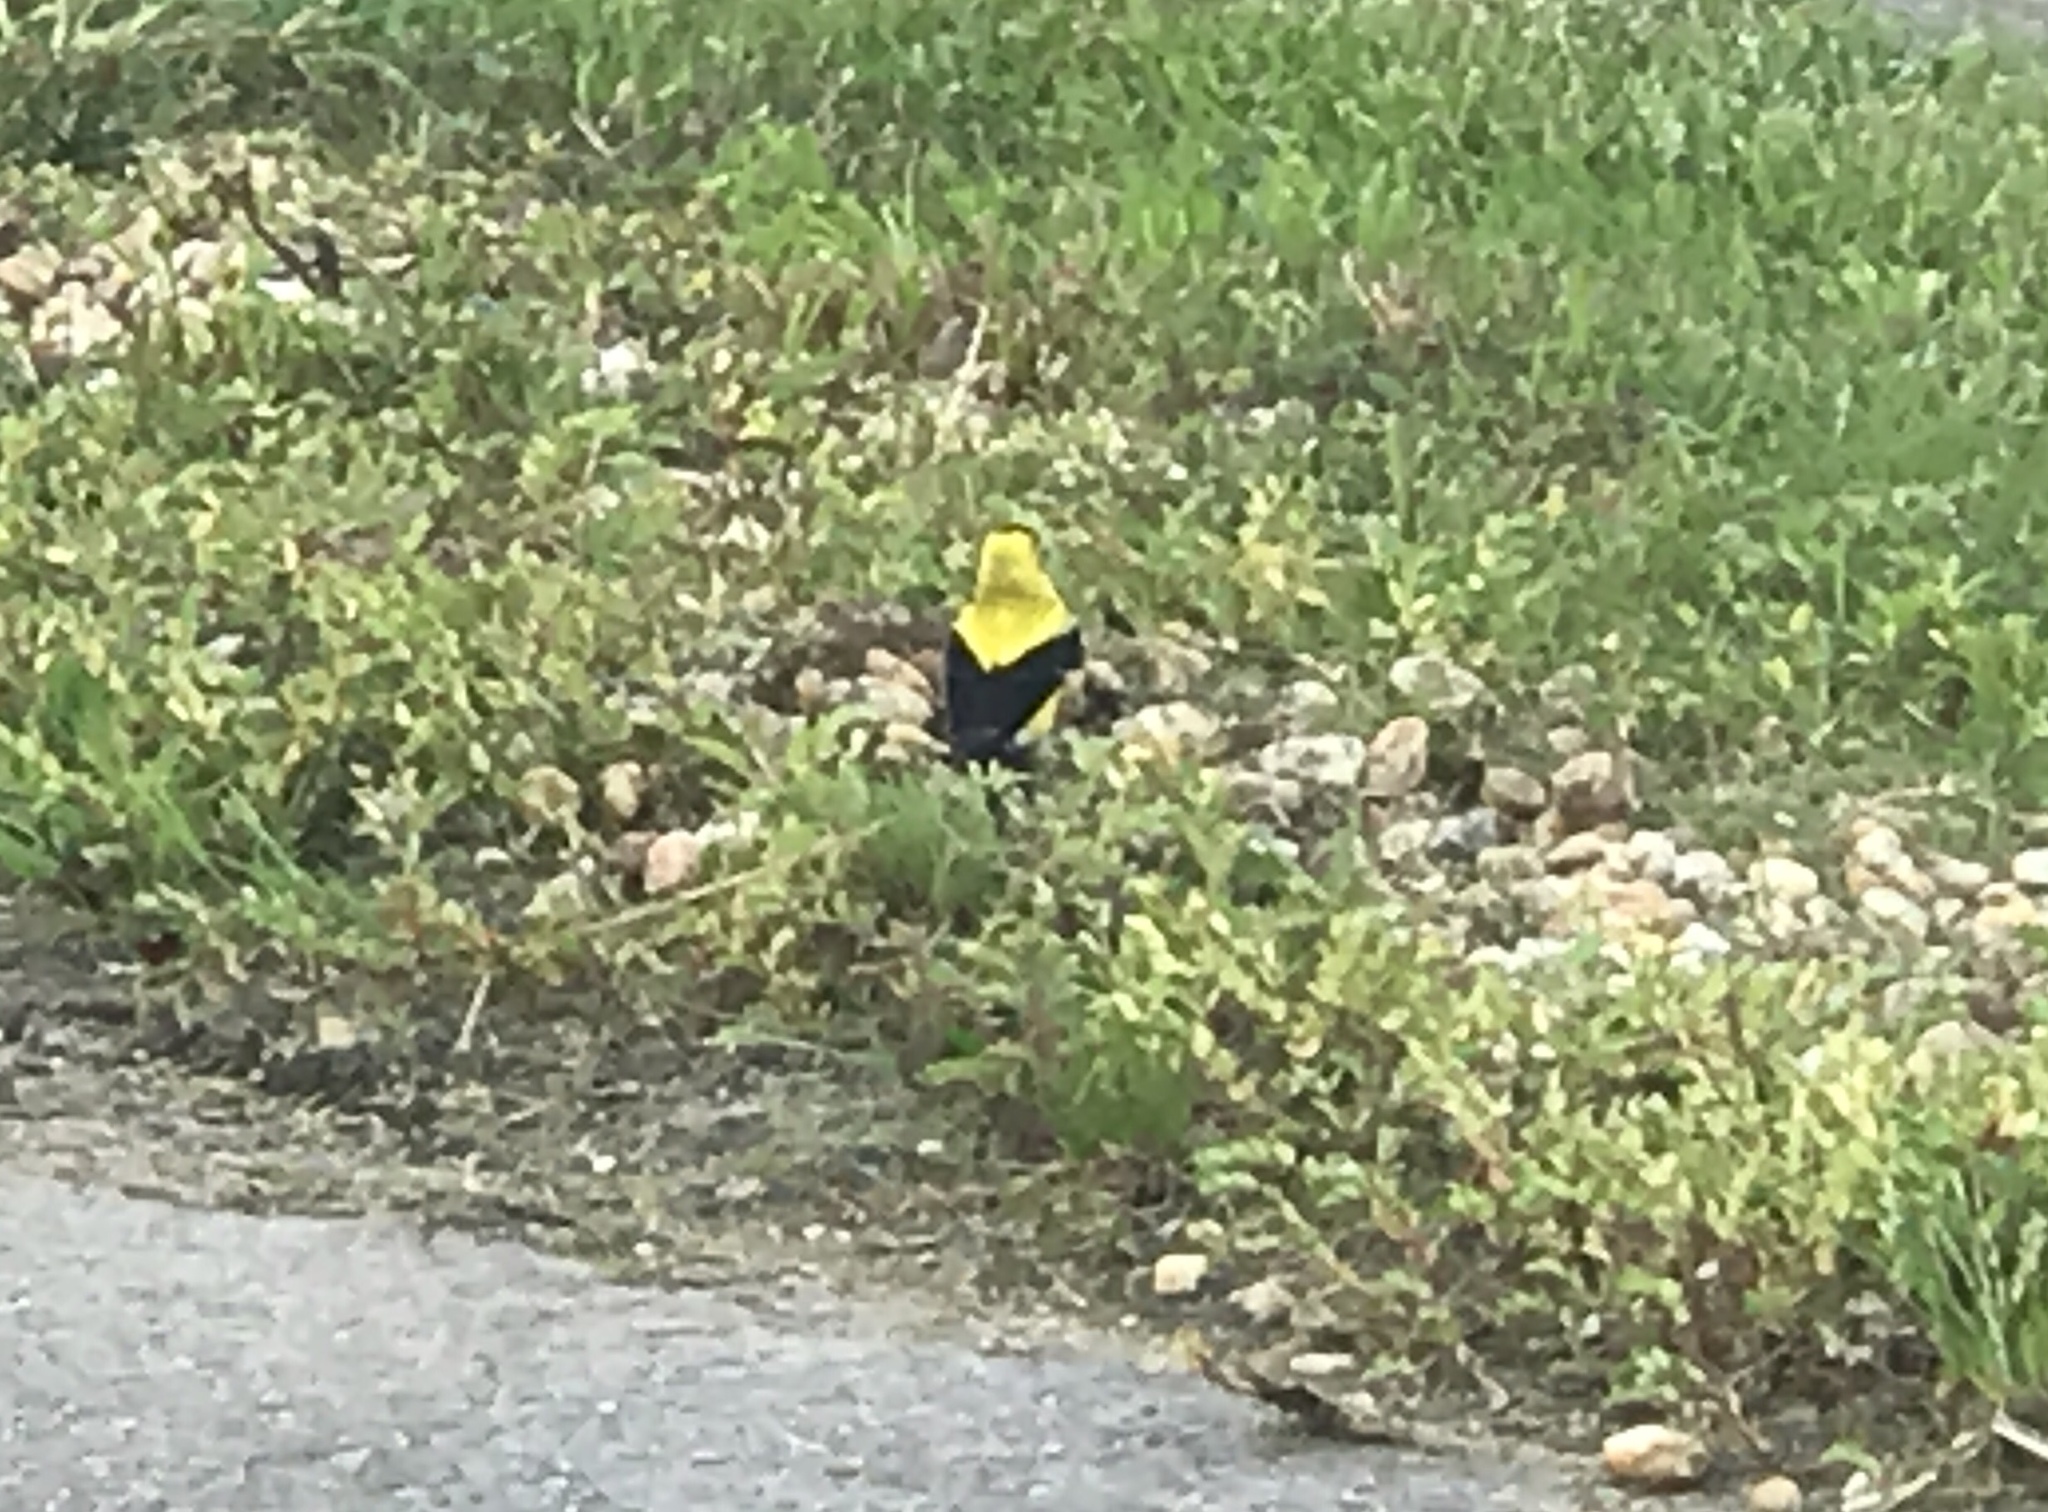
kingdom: Animalia
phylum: Chordata
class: Aves
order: Passeriformes
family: Fringillidae
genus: Spinus
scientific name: Spinus tristis
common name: American goldfinch
